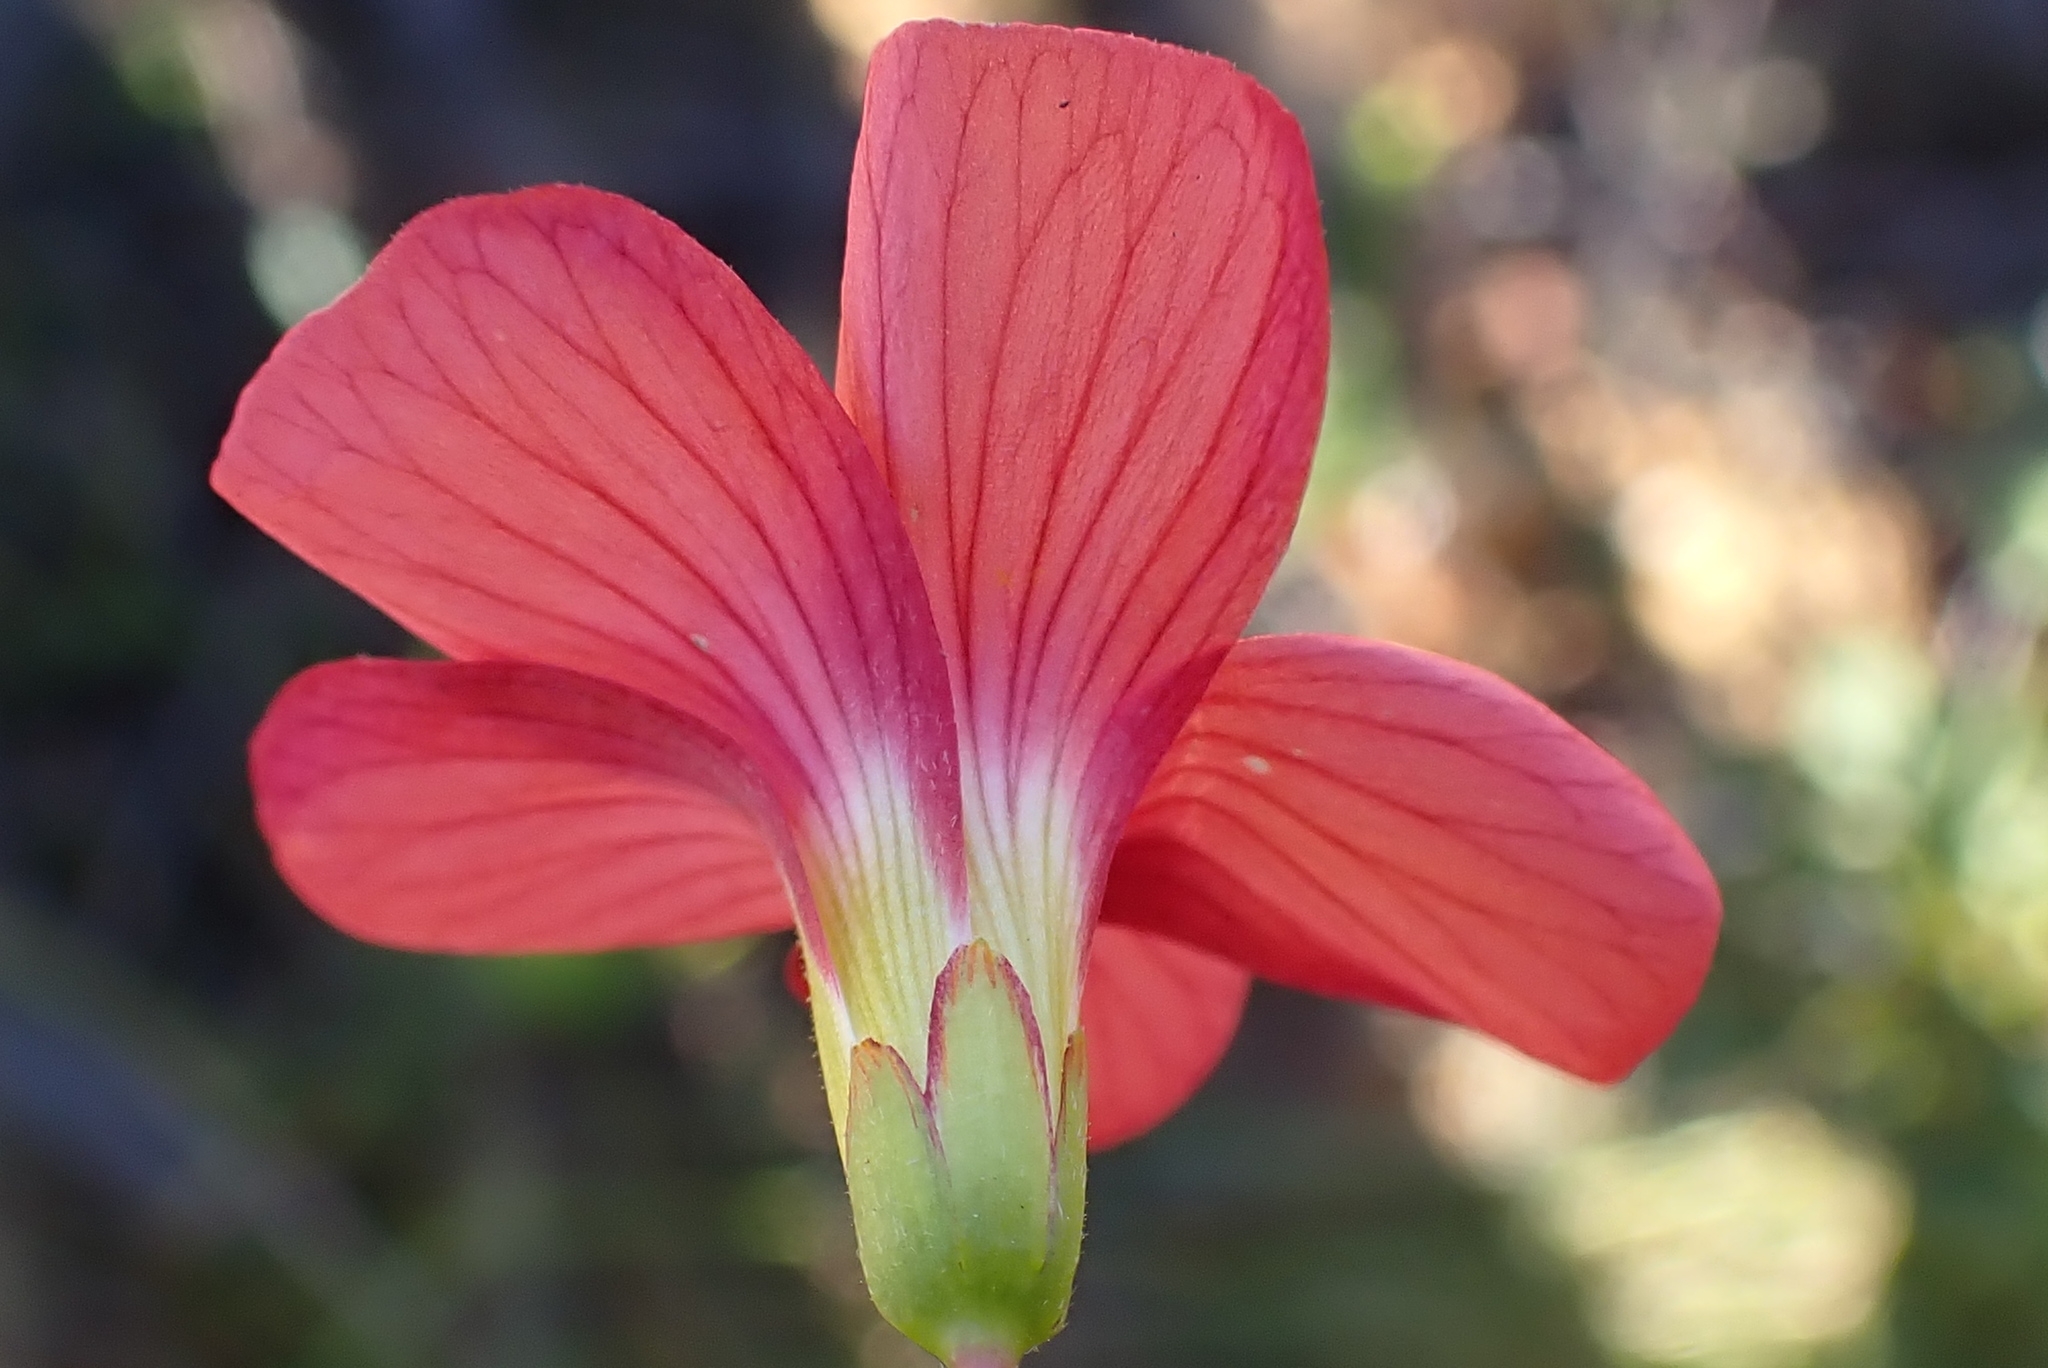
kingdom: Plantae
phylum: Tracheophyta
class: Magnoliopsida
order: Oxalidales
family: Oxalidaceae
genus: Oxalis
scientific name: Oxalis pendulifolia
